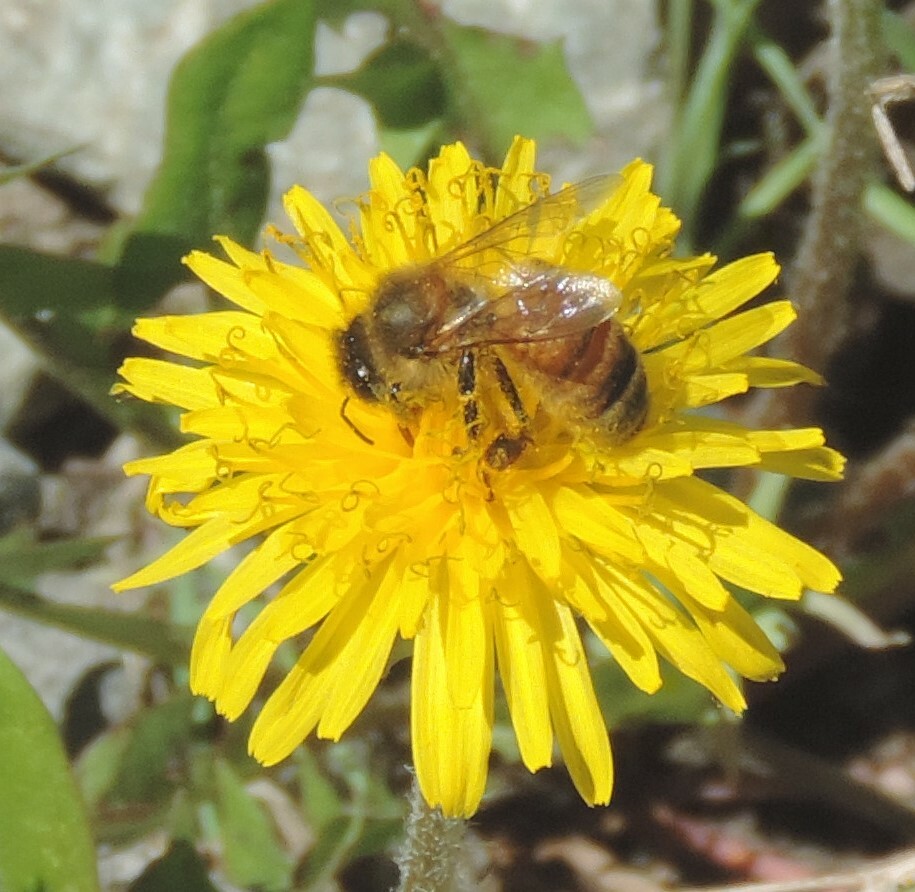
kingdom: Animalia
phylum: Arthropoda
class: Insecta
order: Hymenoptera
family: Apidae
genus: Apis
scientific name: Apis mellifera
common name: Honey bee
